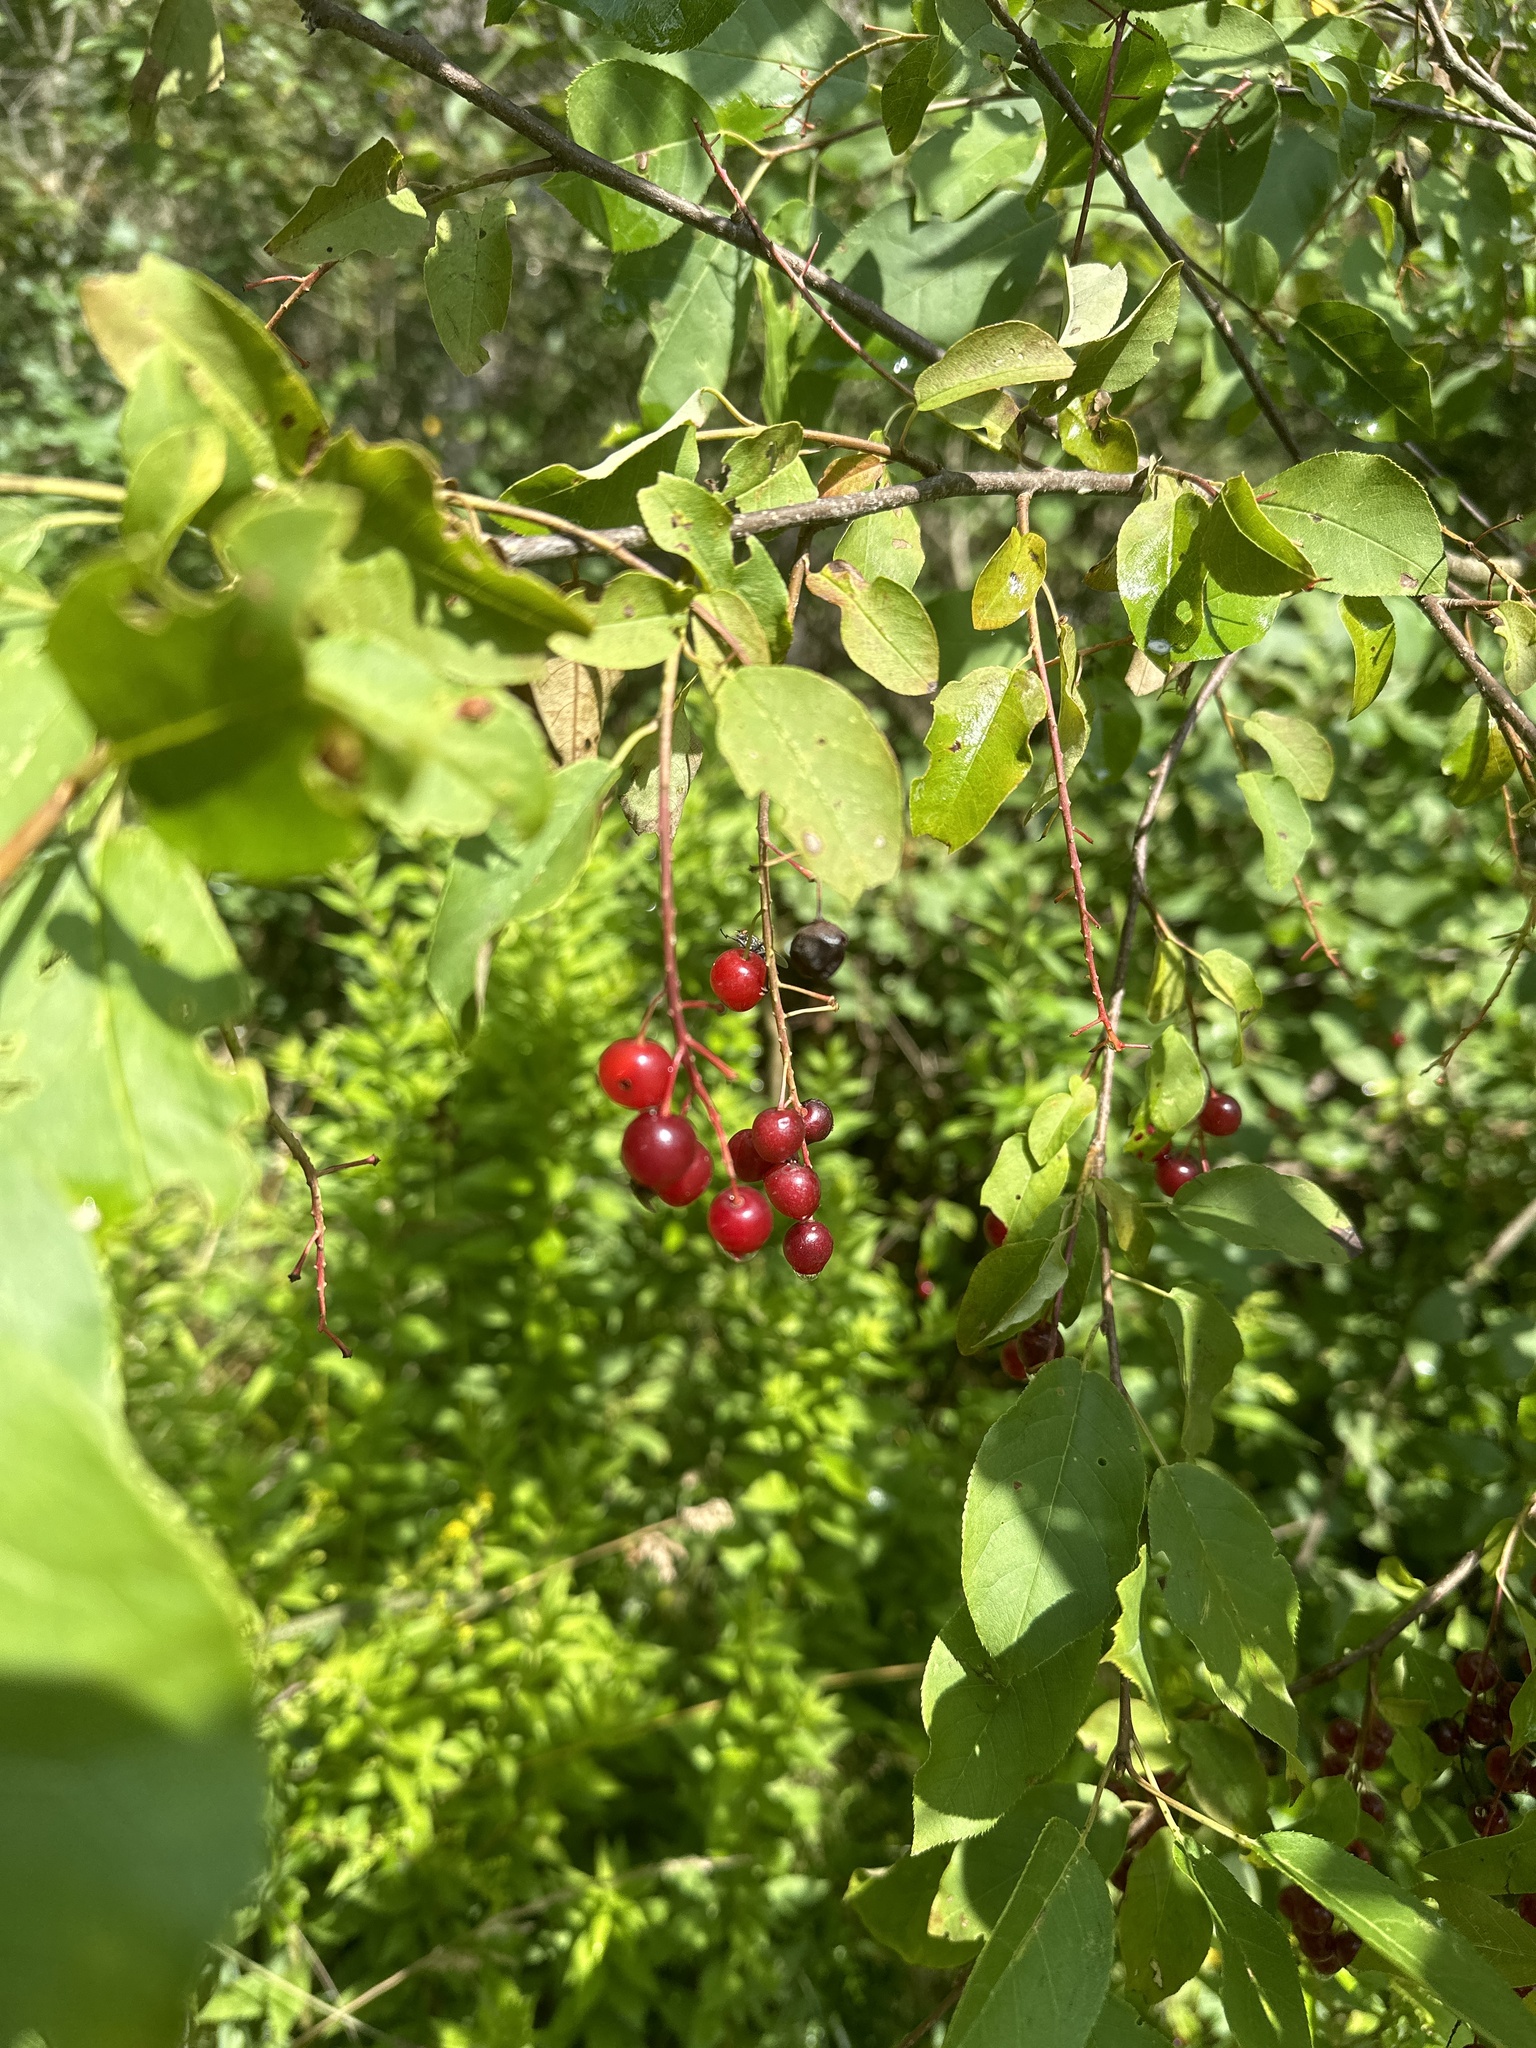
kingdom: Plantae
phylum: Tracheophyta
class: Magnoliopsida
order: Rosales
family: Rosaceae
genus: Prunus
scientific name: Prunus virginiana
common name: Chokecherry
